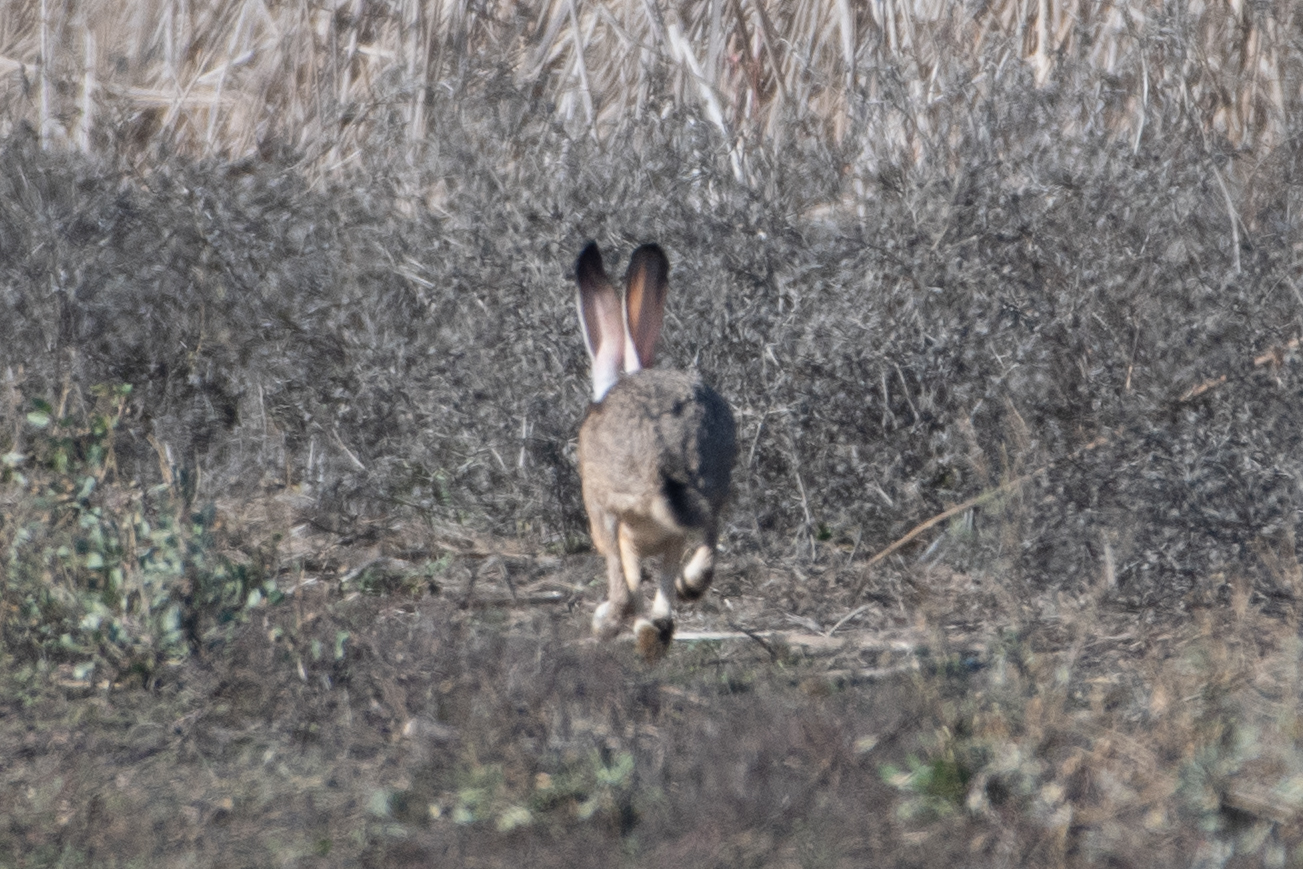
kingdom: Animalia
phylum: Chordata
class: Mammalia
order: Lagomorpha
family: Leporidae
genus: Lepus
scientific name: Lepus californicus
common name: Black-tailed jackrabbit
